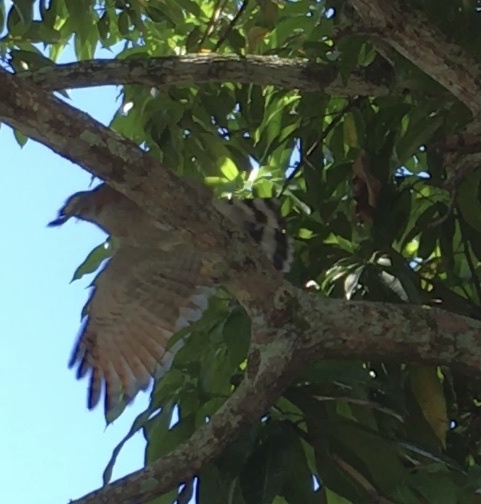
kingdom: Animalia
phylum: Chordata
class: Aves
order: Accipitriformes
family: Accipitridae
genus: Rupornis
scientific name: Rupornis magnirostris
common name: Roadside hawk
